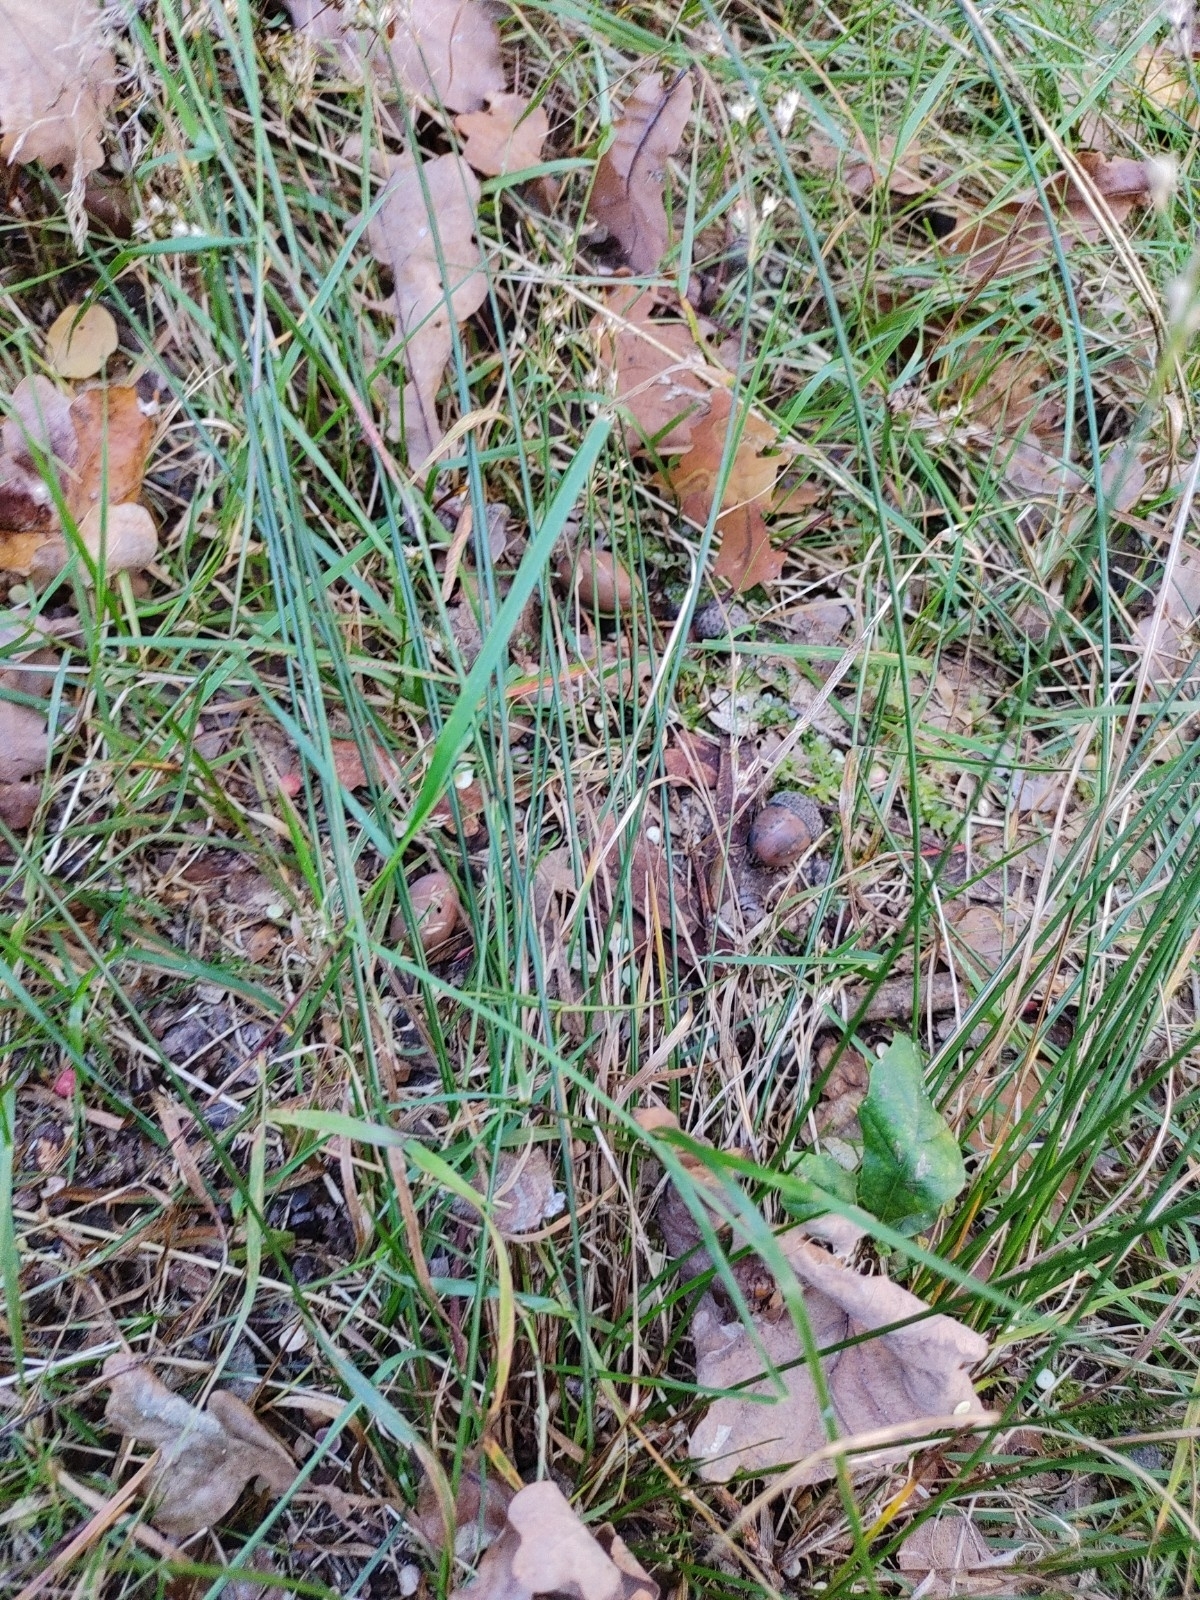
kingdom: Plantae
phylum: Tracheophyta
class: Liliopsida
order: Poales
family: Juncaceae
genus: Juncus
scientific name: Juncus tenuis
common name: Slender rush
